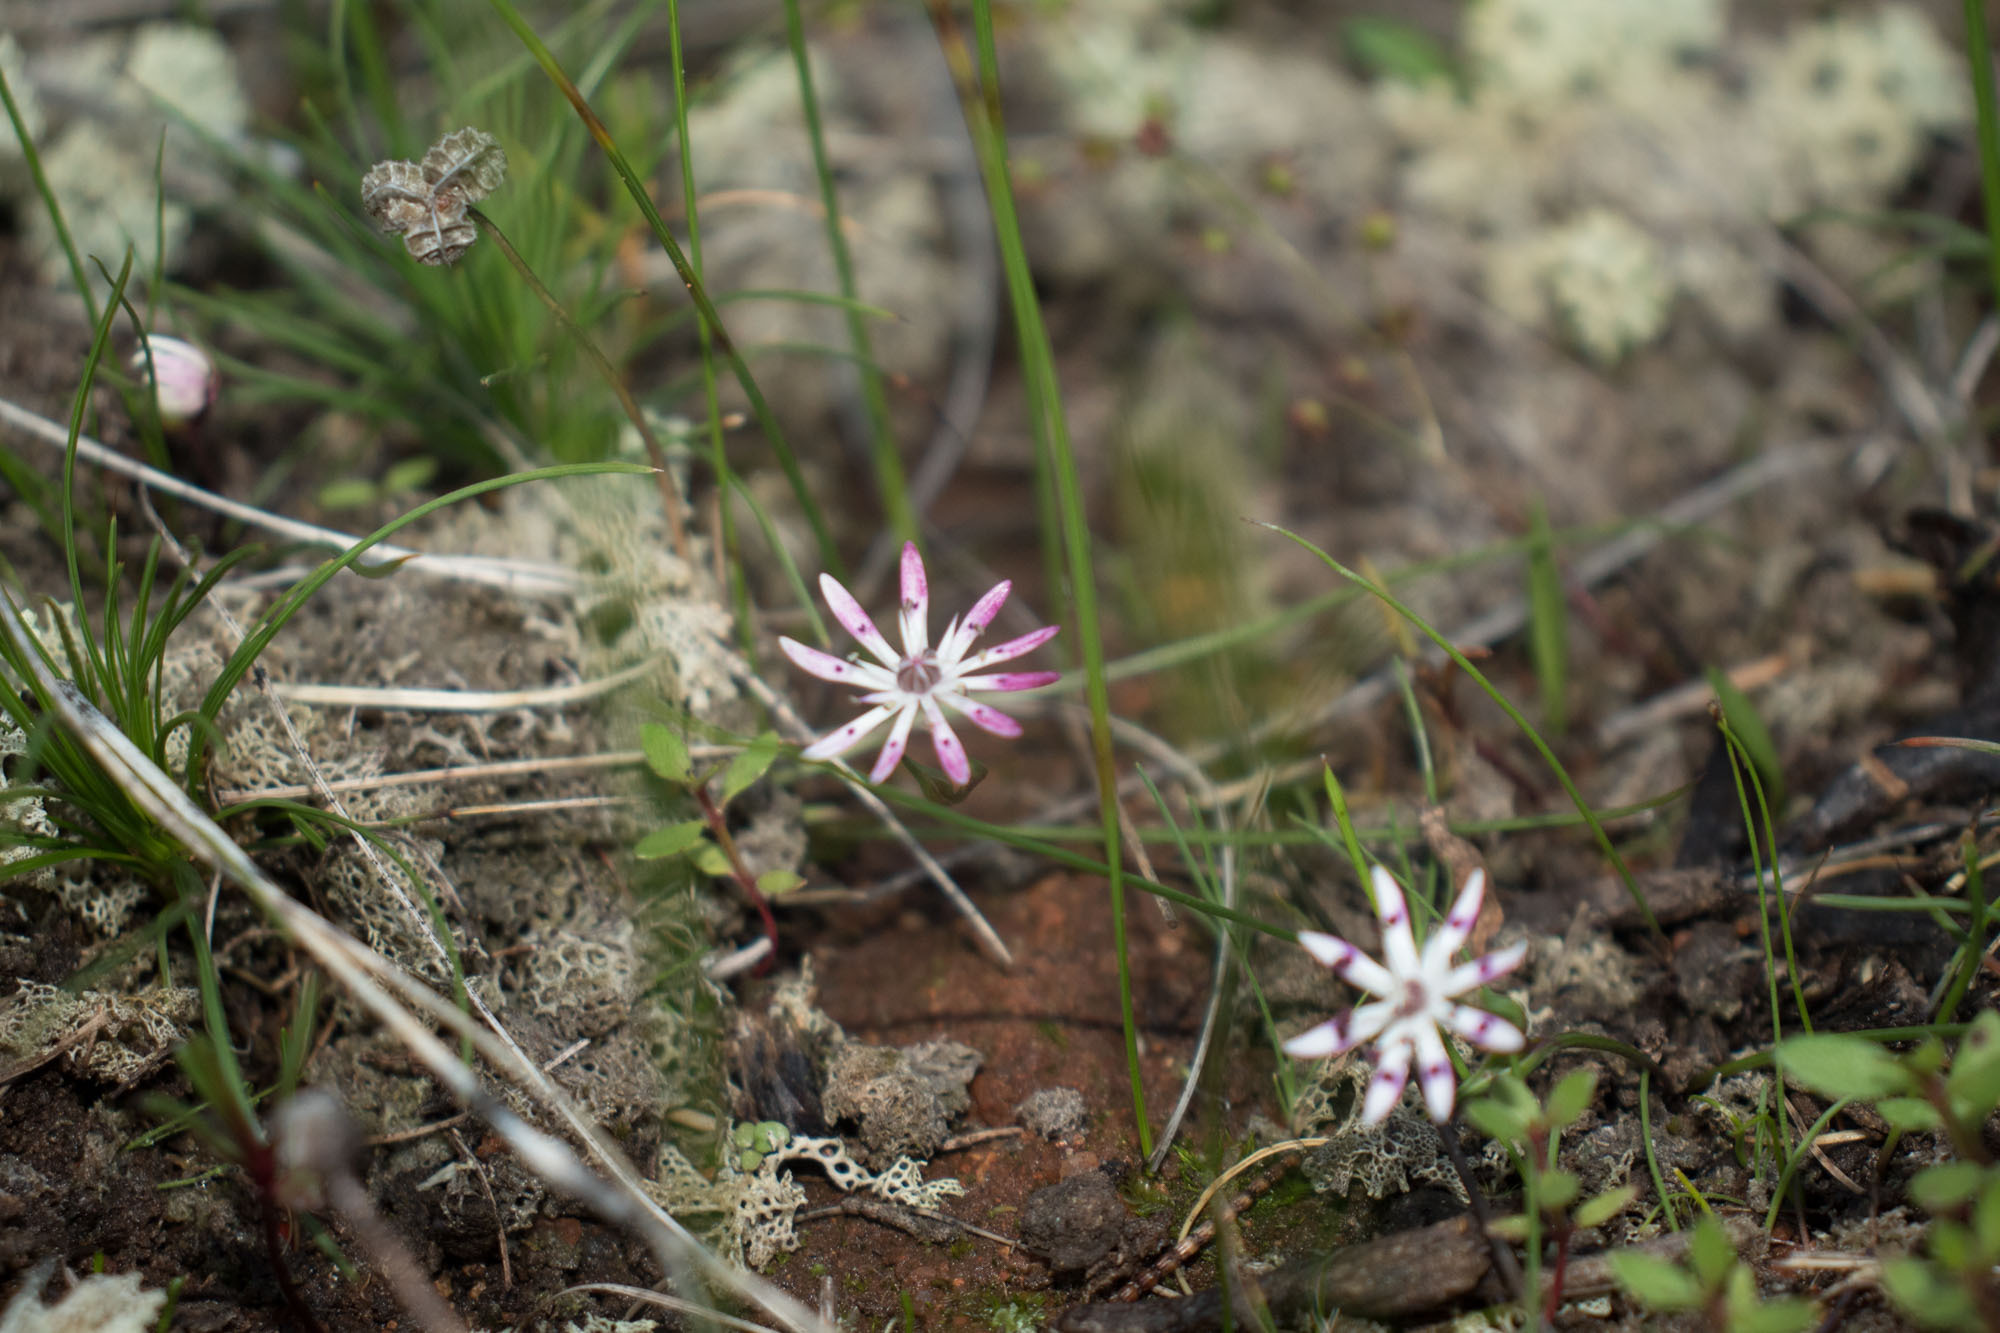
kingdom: Plantae
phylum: Tracheophyta
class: Liliopsida
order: Liliales
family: Colchicaceae
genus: Wurmbea
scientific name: Wurmbea tenella
